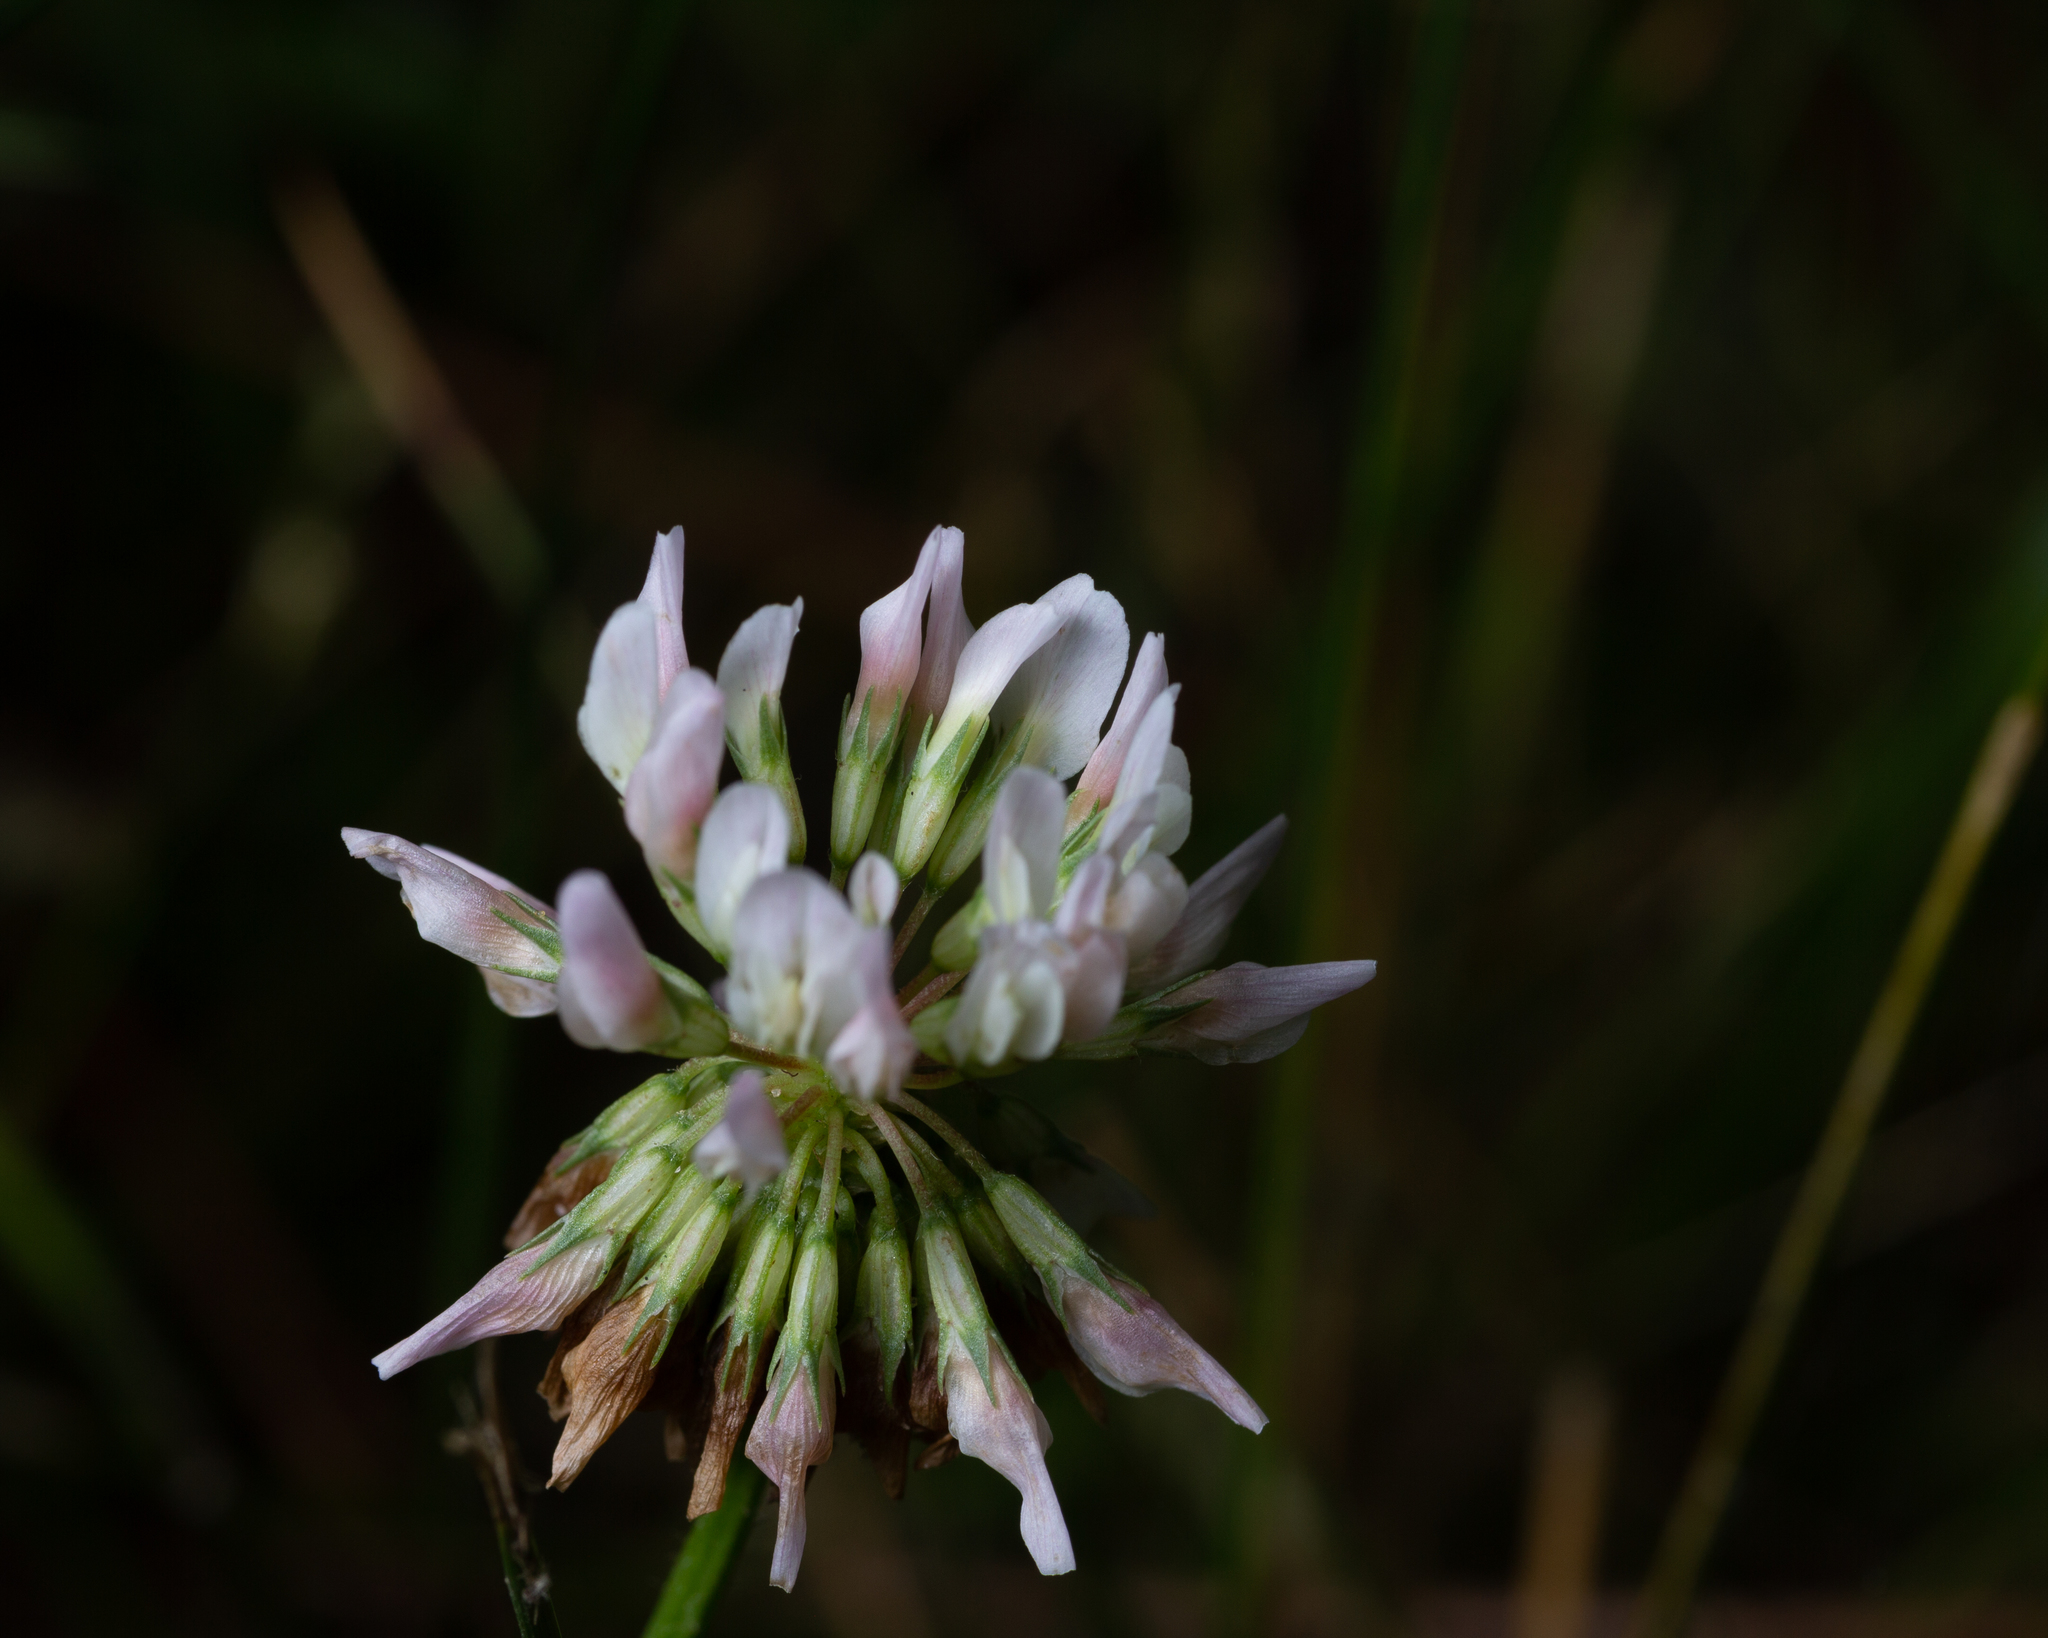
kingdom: Plantae
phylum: Tracheophyta
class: Magnoliopsida
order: Fabales
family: Fabaceae
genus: Trifolium
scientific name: Trifolium repens
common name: White clover
